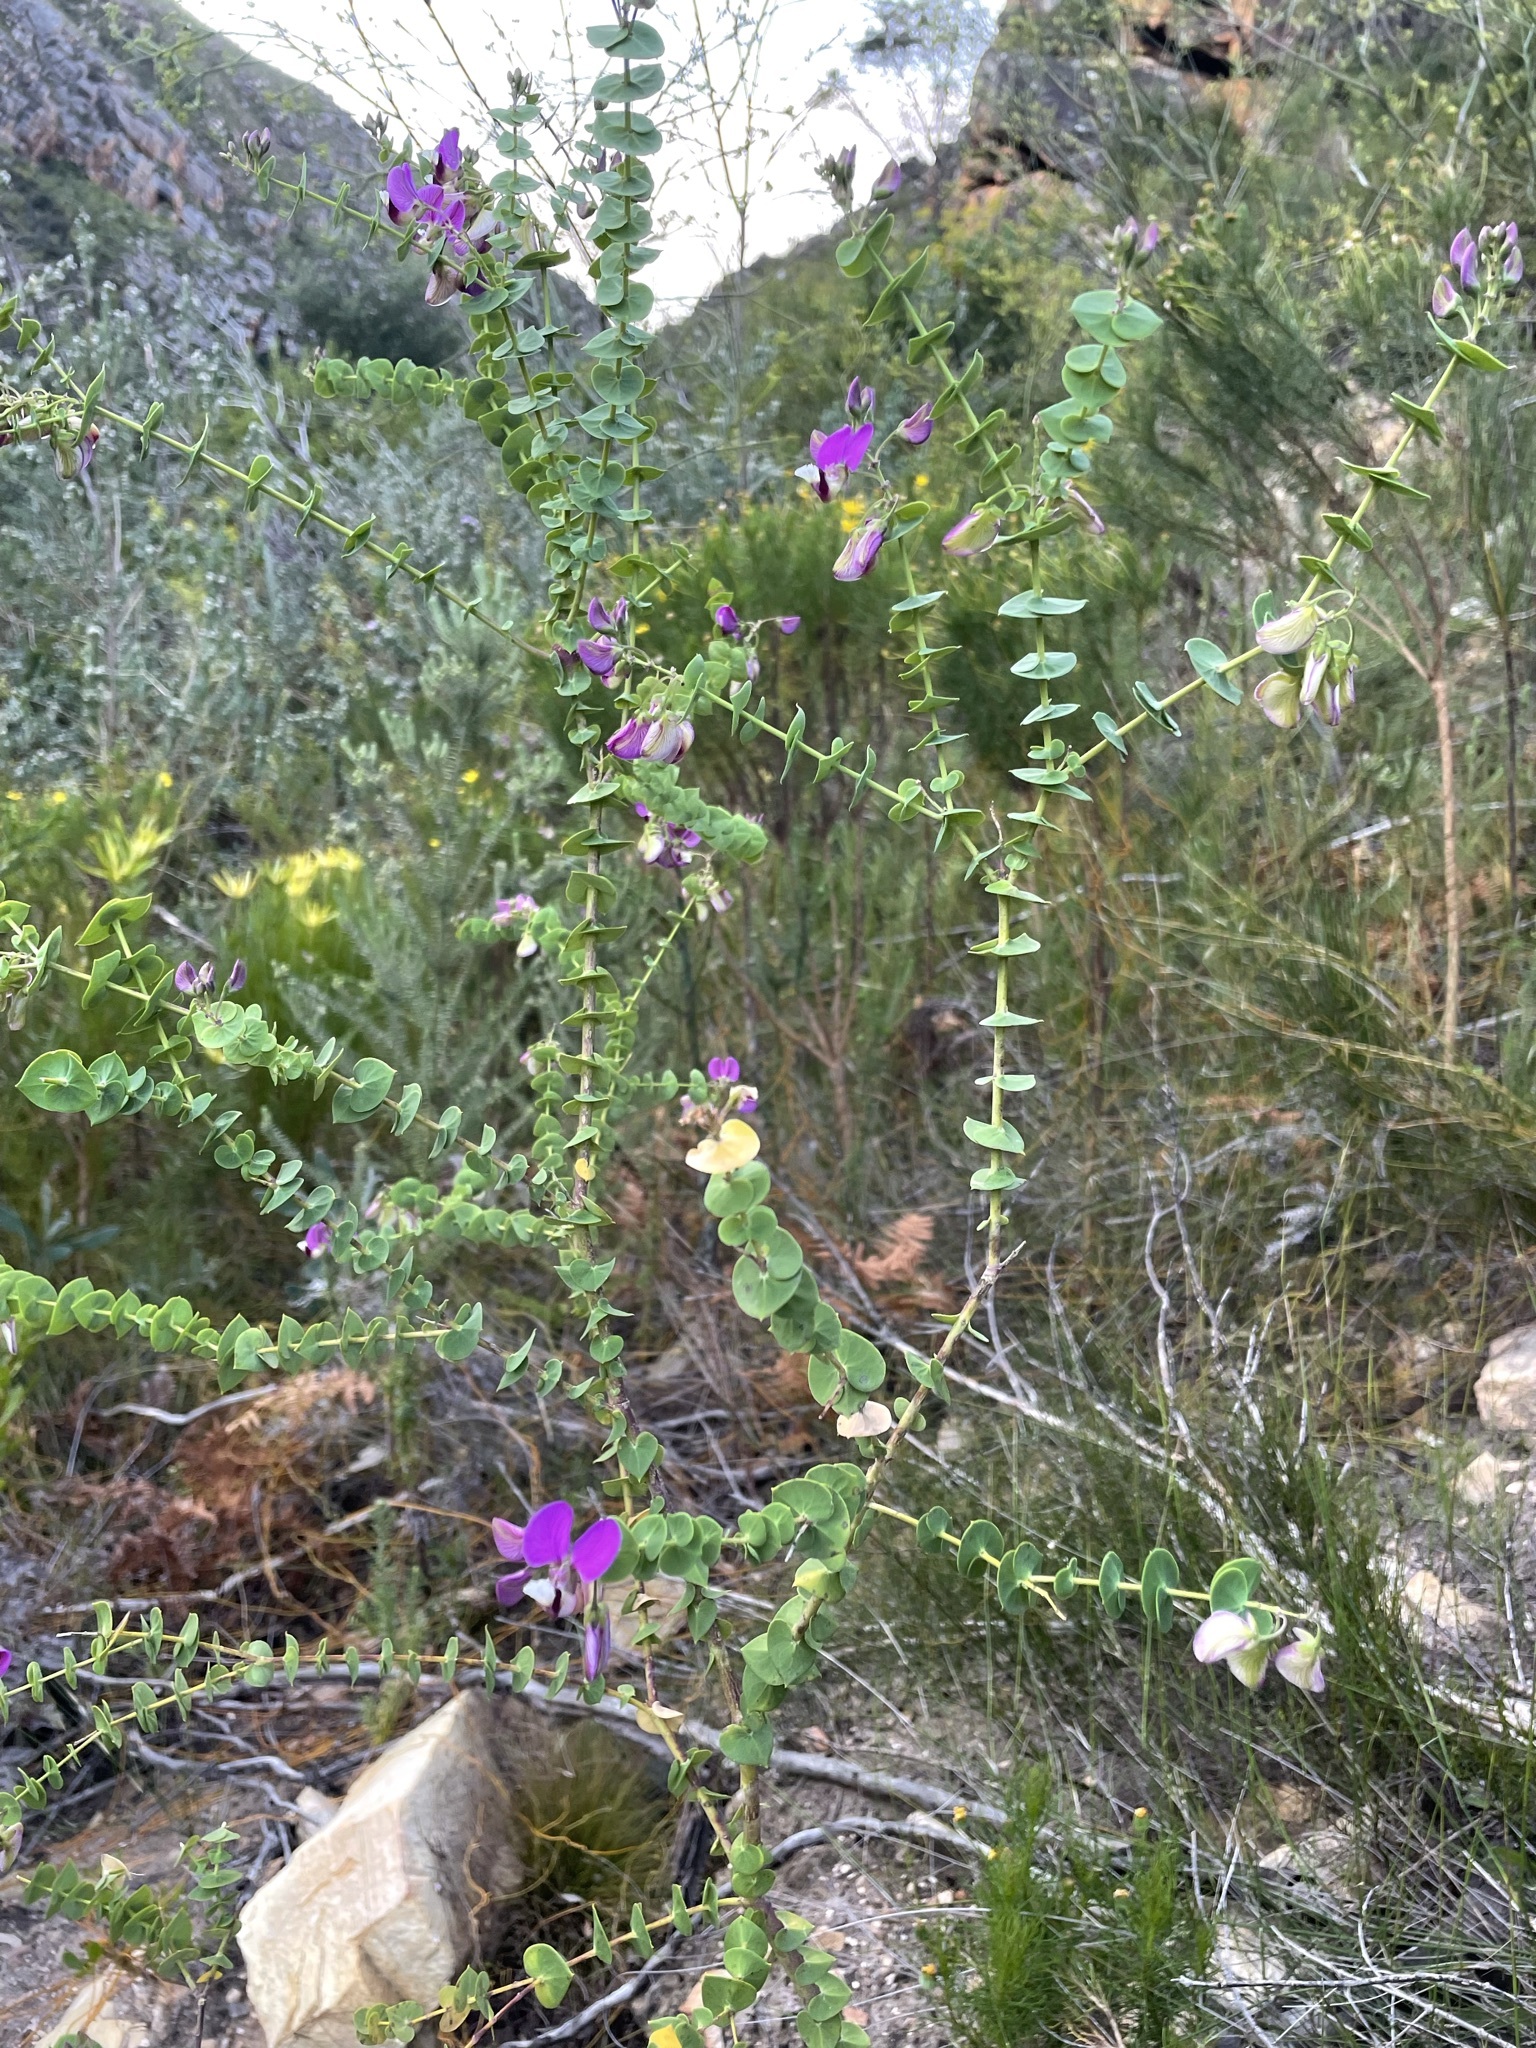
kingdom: Plantae
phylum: Tracheophyta
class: Magnoliopsida
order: Fabales
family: Polygalaceae
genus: Polygala
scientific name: Polygala fruticosa
